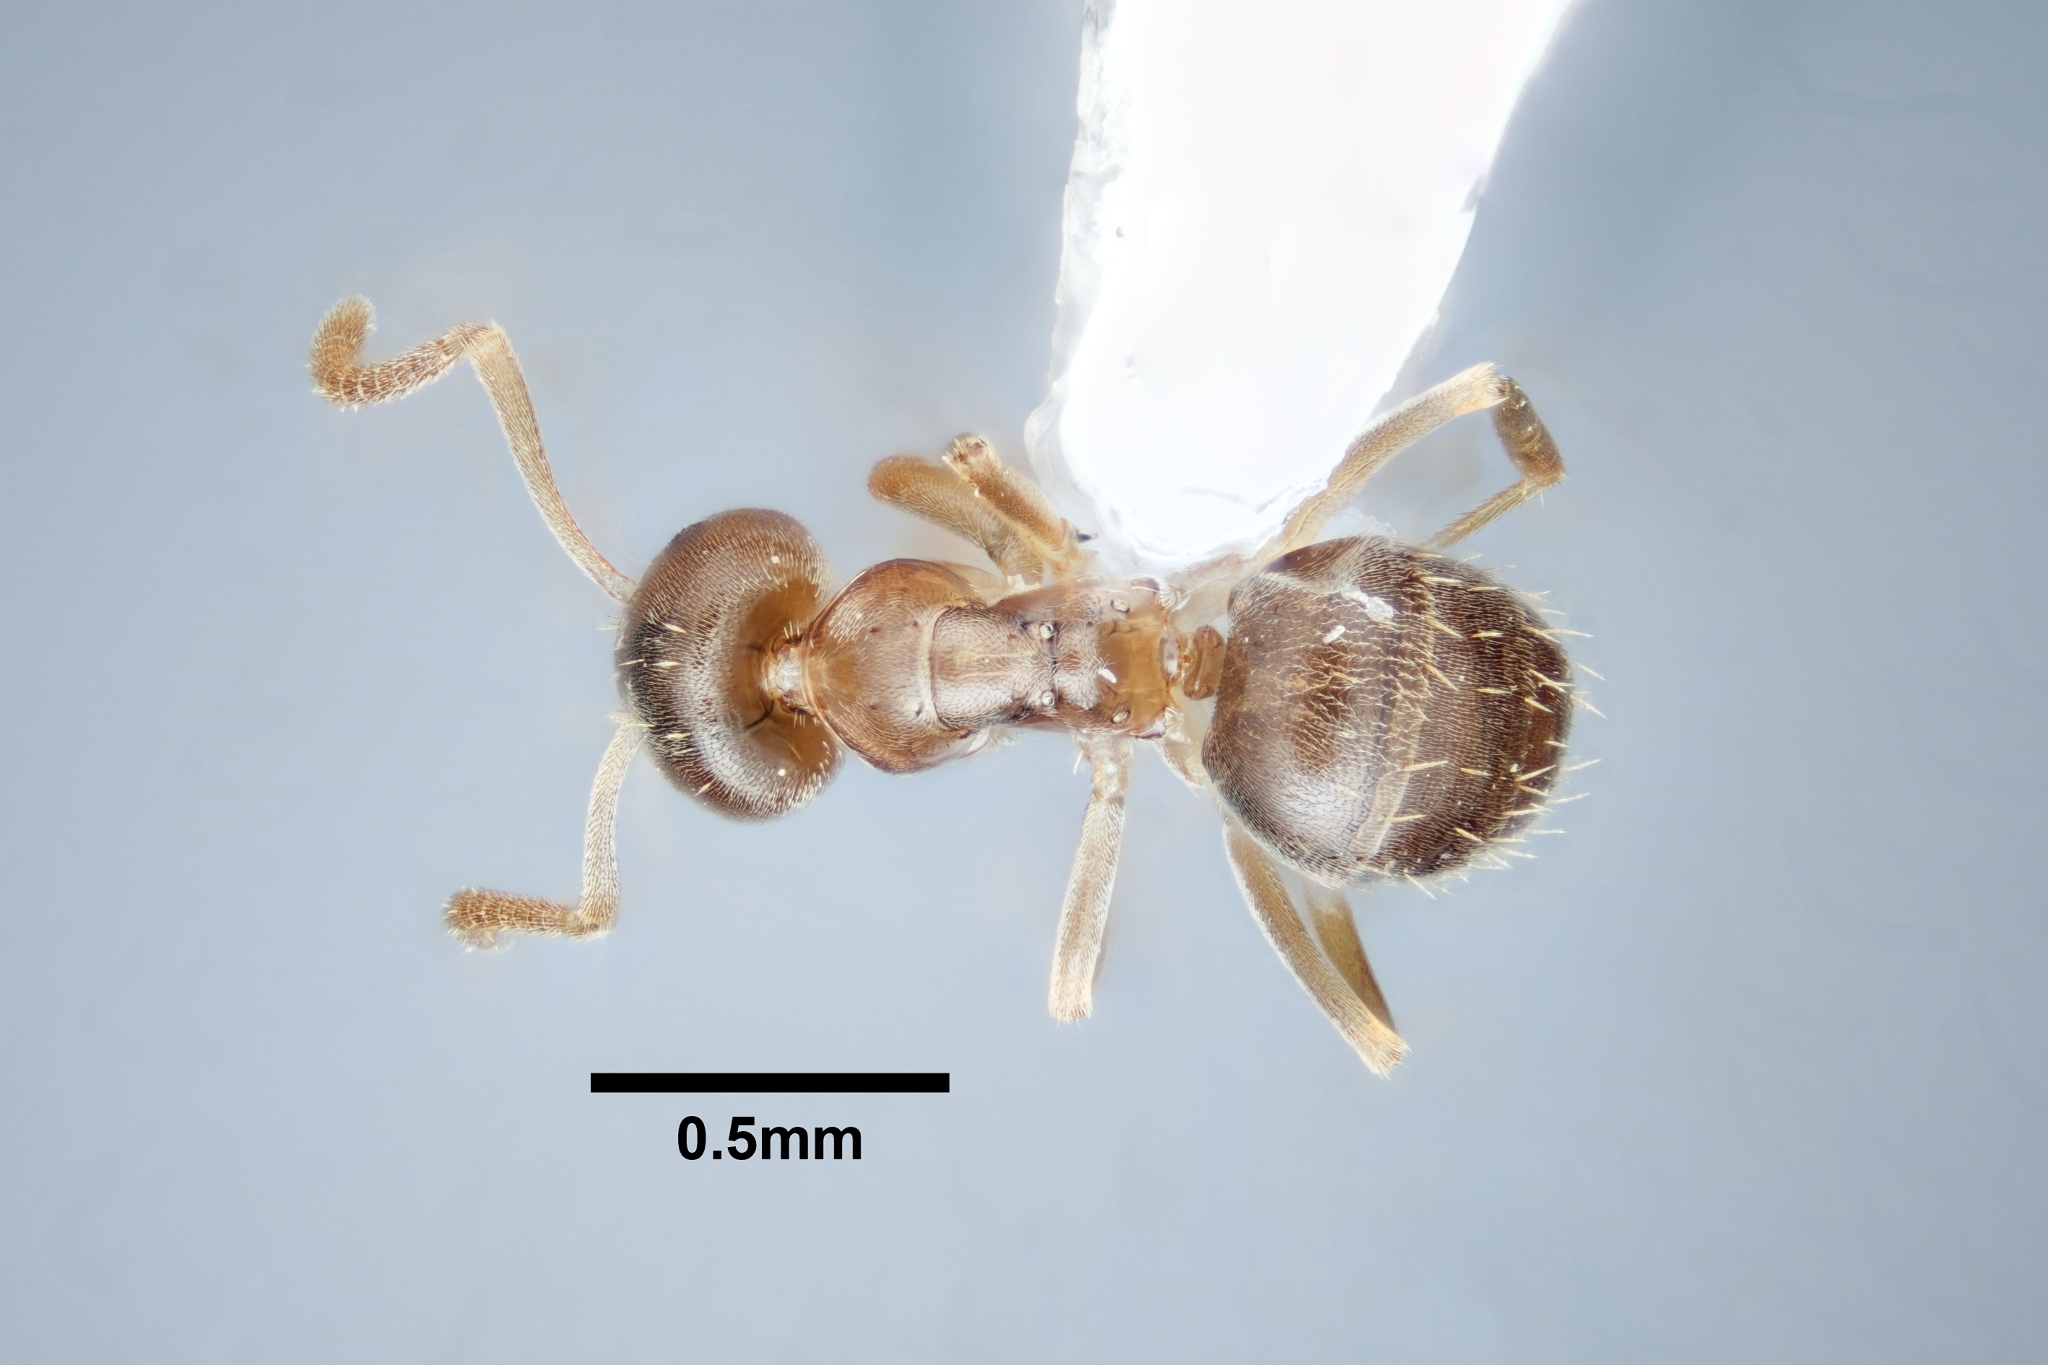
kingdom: Animalia
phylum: Arthropoda
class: Insecta
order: Hymenoptera
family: Formicidae
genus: Paraparatrechina
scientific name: Paraparatrechina
